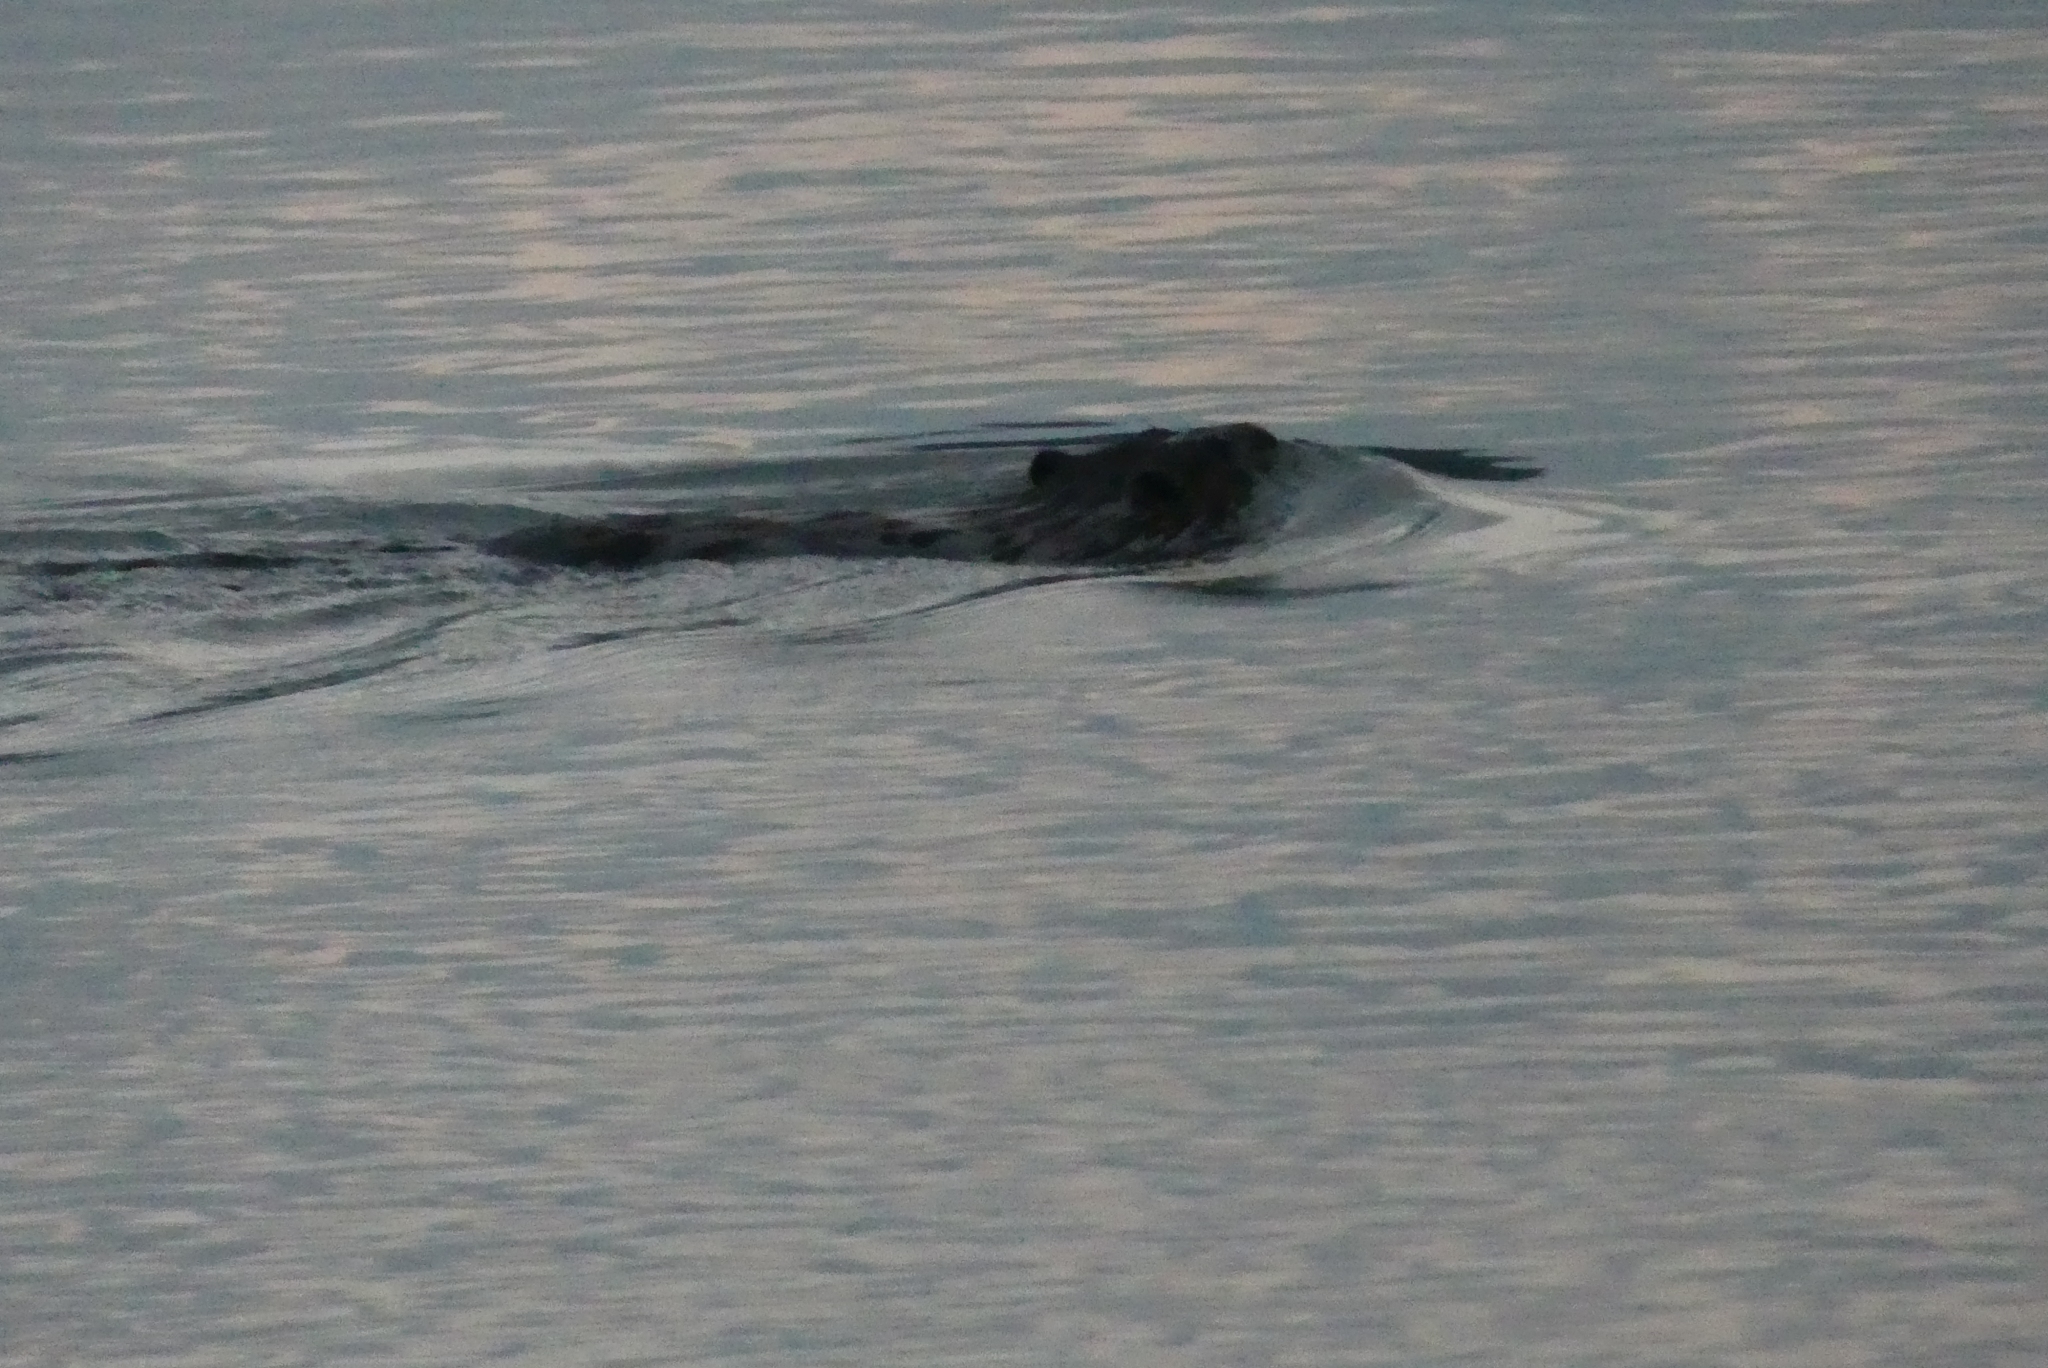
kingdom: Animalia
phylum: Chordata
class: Mammalia
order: Rodentia
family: Castoridae
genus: Castor
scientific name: Castor canadensis
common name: American beaver
